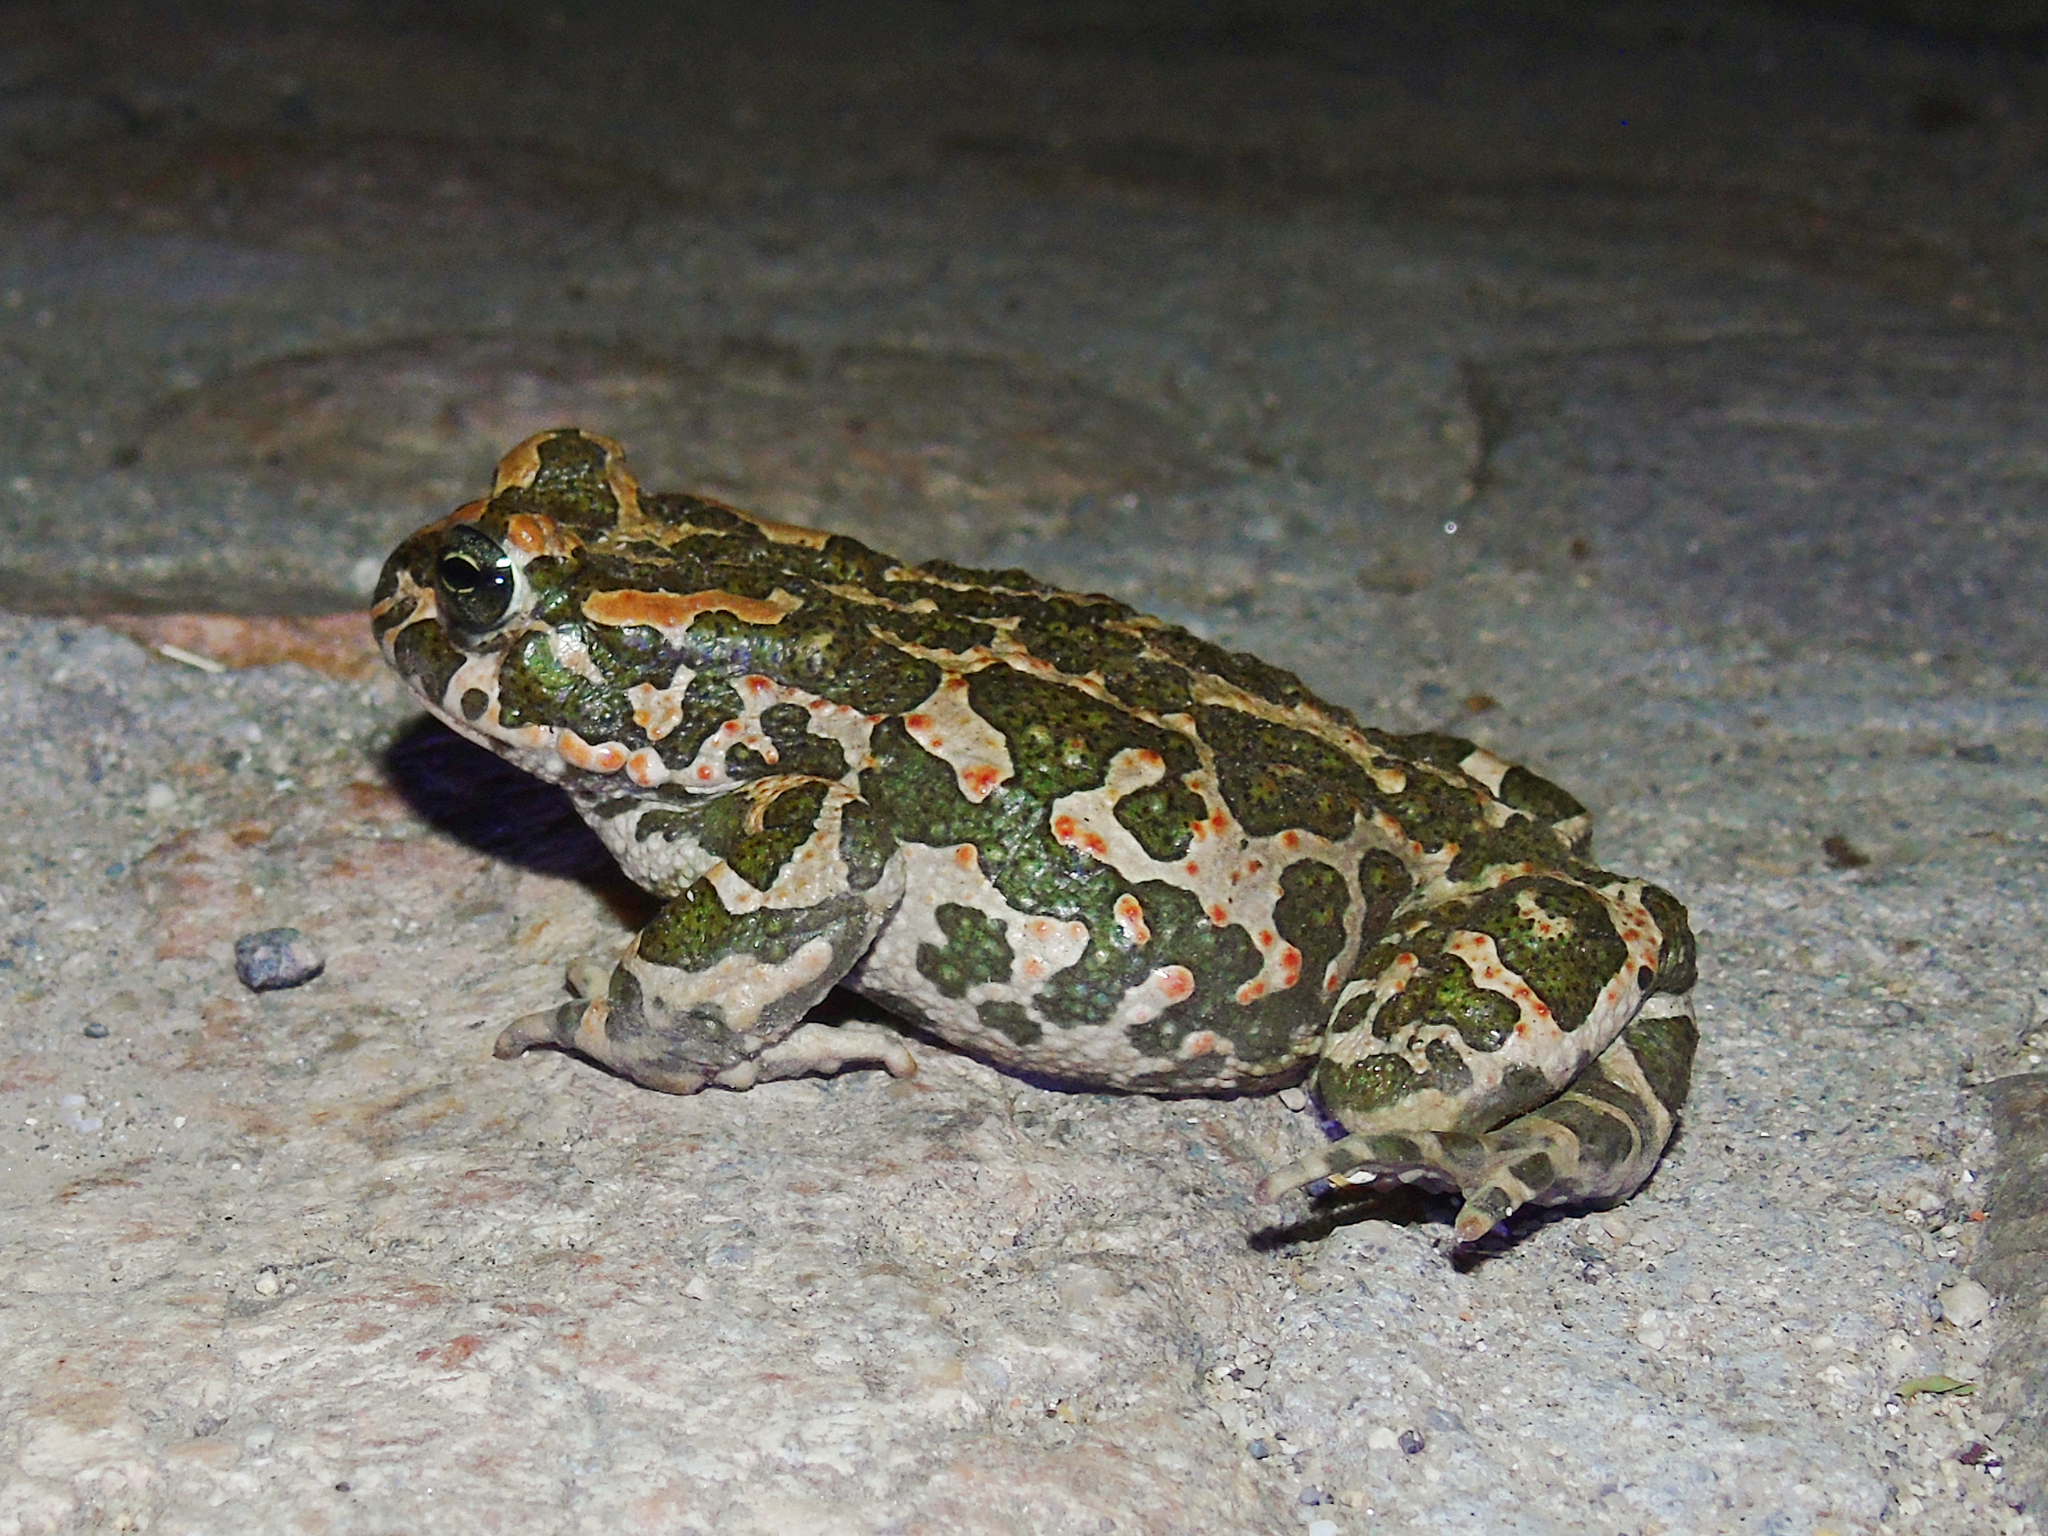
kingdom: Animalia
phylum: Chordata
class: Amphibia
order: Anura
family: Bufonidae
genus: Bufotes
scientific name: Bufotes viridis
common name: European green toad
